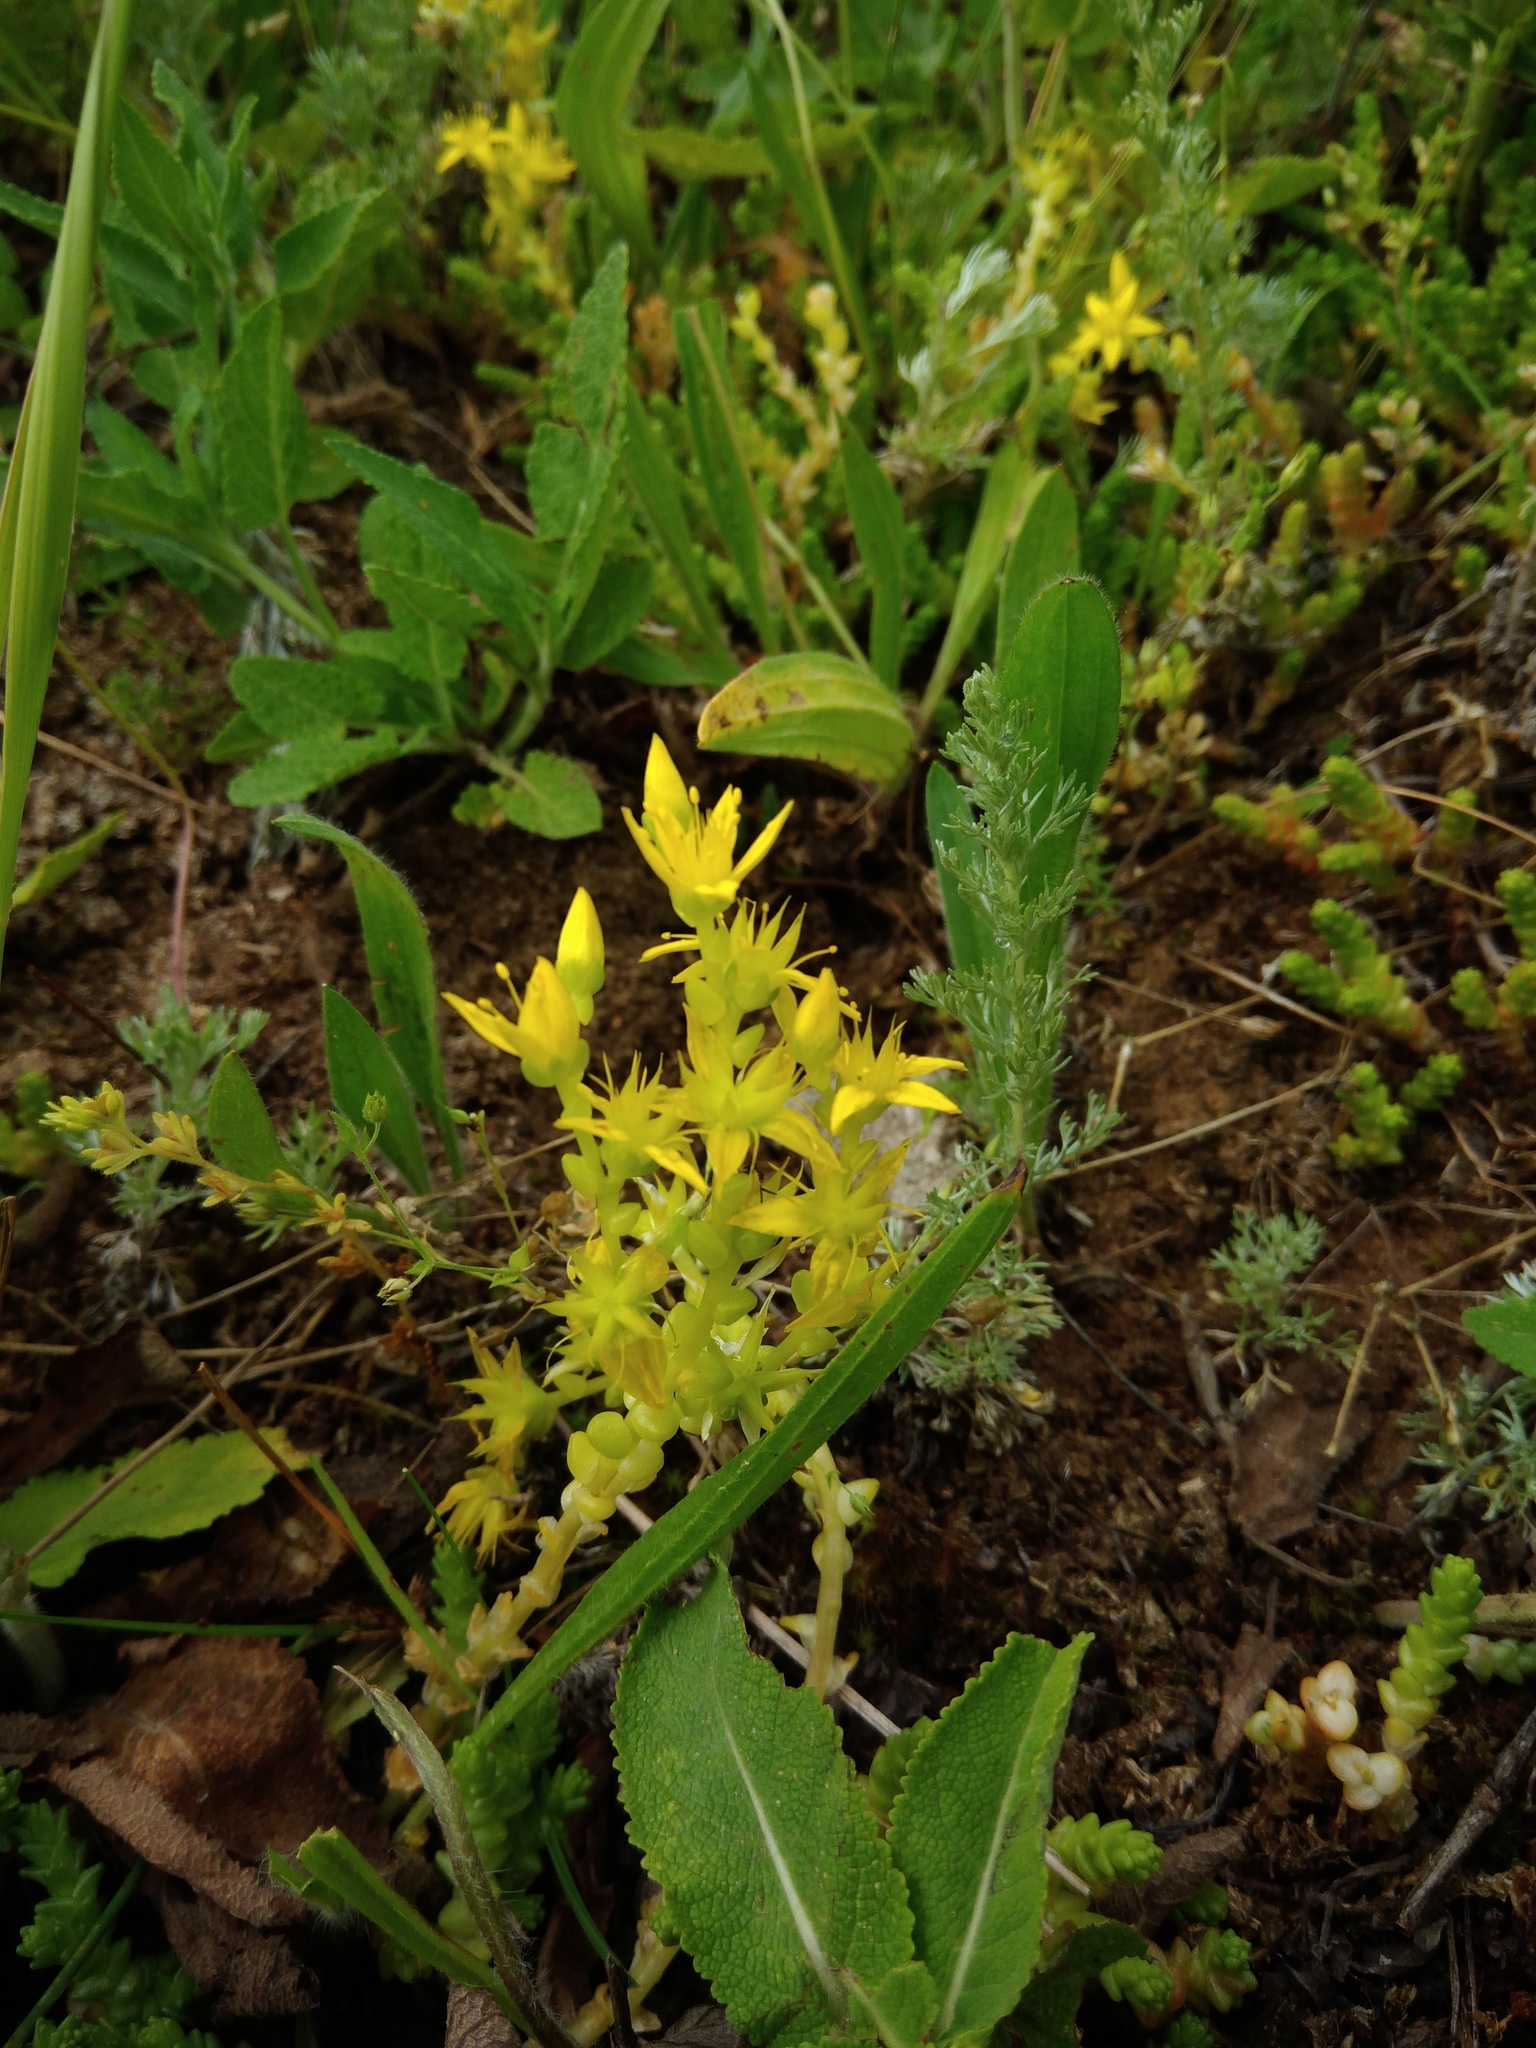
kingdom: Plantae
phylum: Tracheophyta
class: Magnoliopsida
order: Saxifragales
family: Crassulaceae
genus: Sedum
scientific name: Sedum acre
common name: Biting stonecrop
